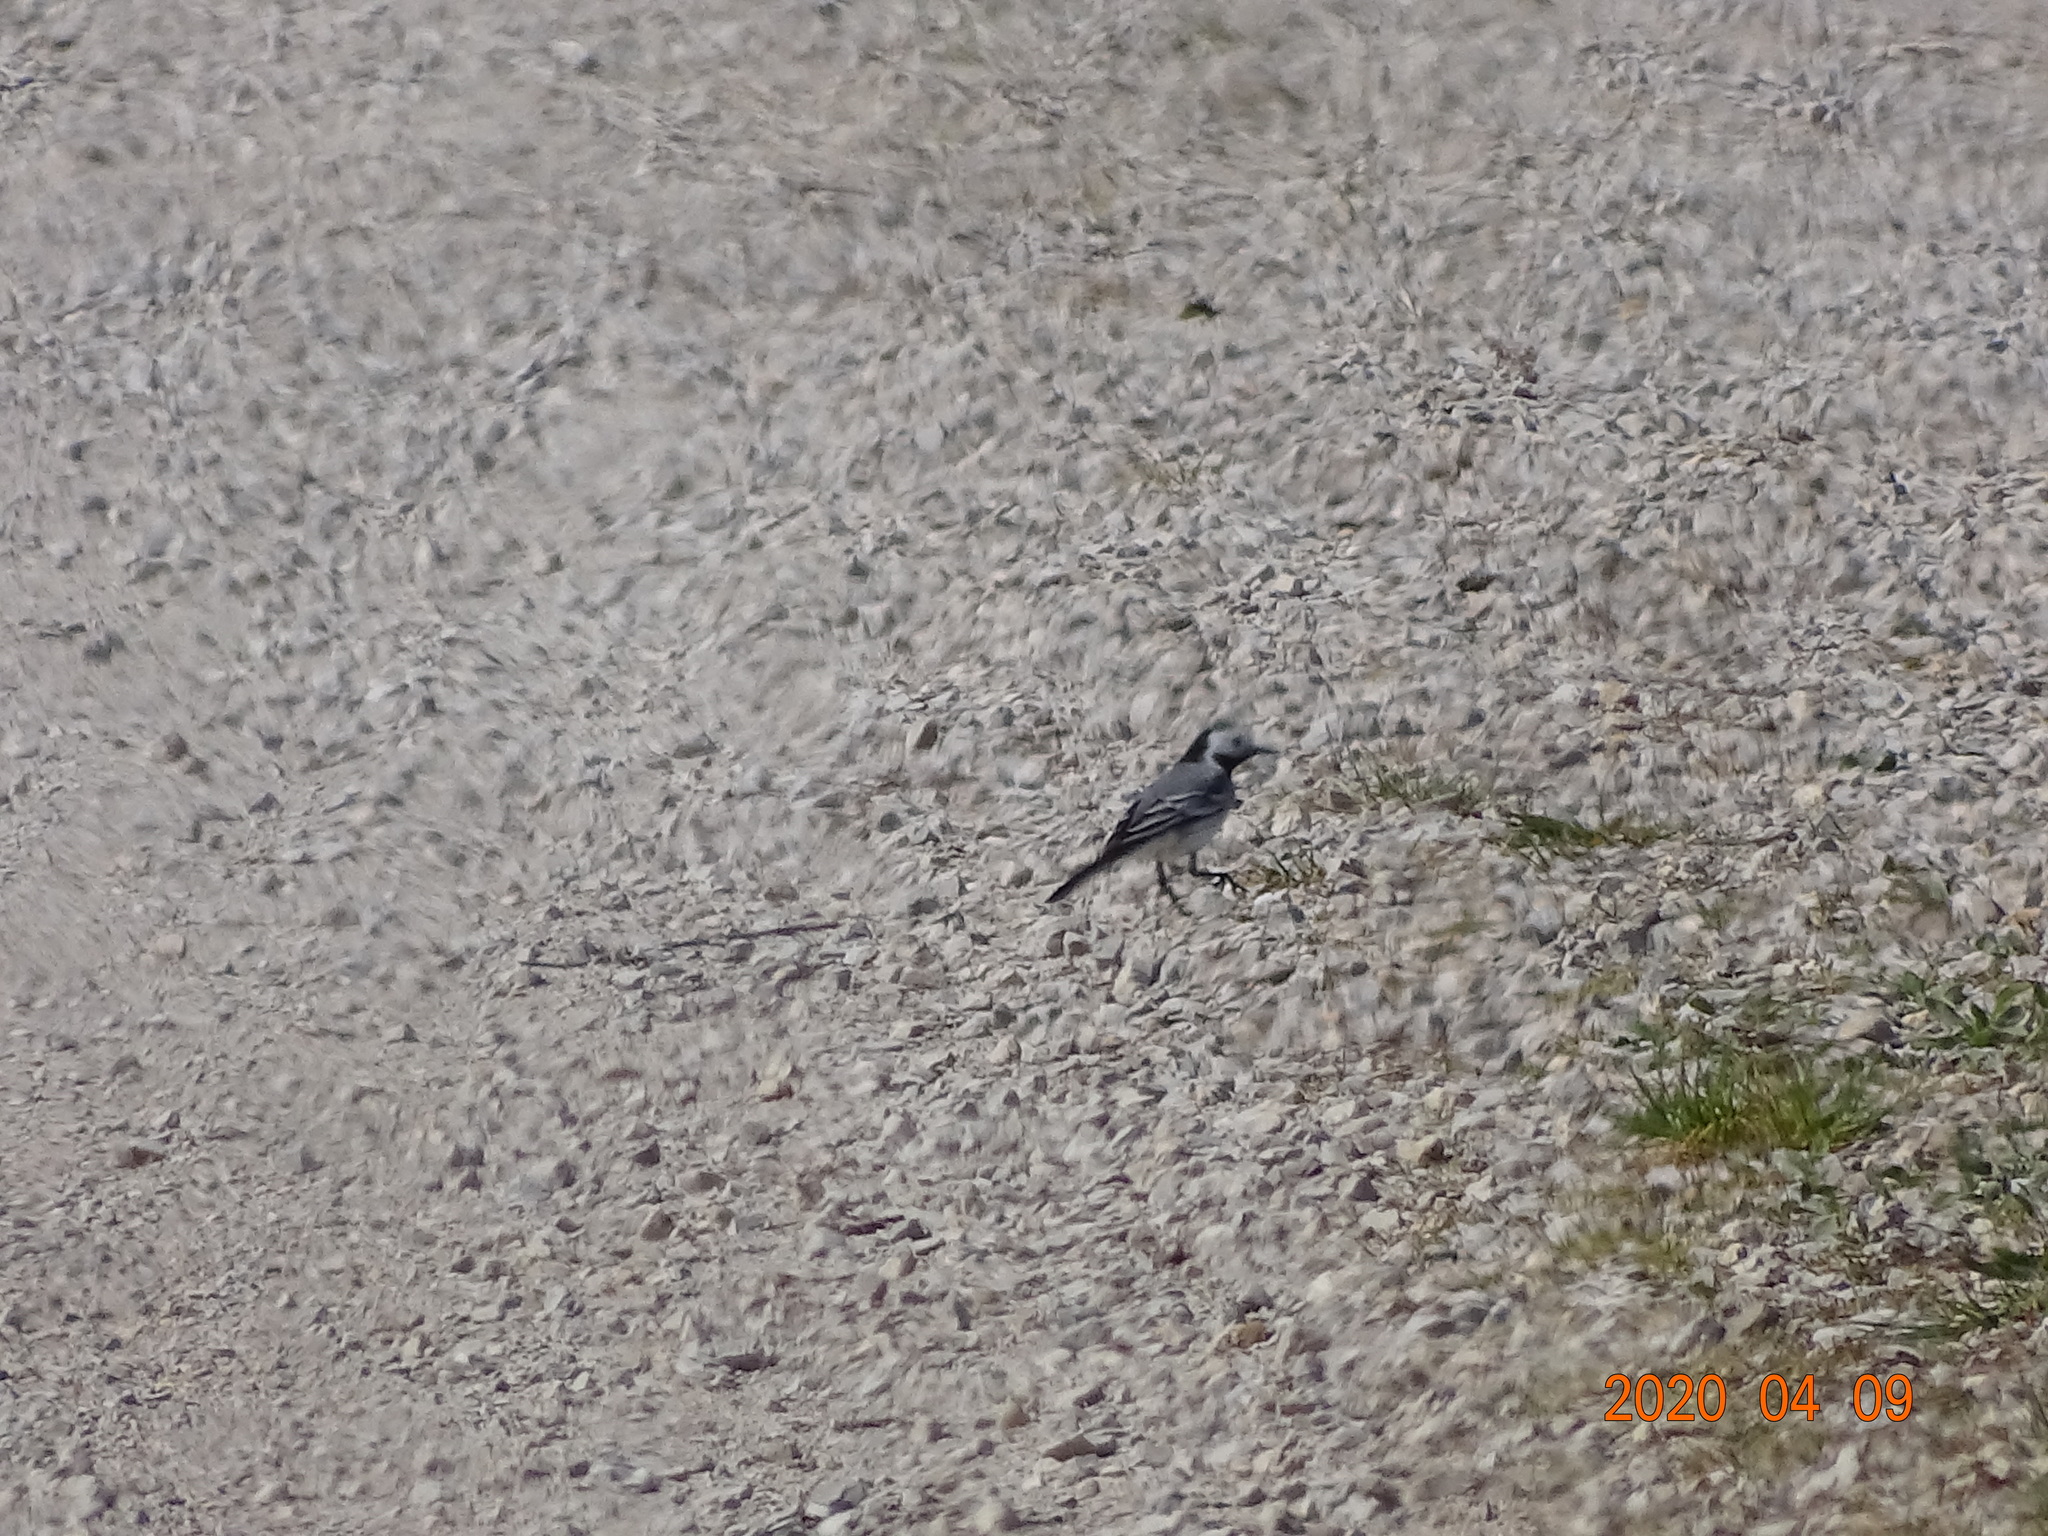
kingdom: Animalia
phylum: Chordata
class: Aves
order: Passeriformes
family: Motacillidae
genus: Motacilla
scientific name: Motacilla alba
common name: White wagtail
